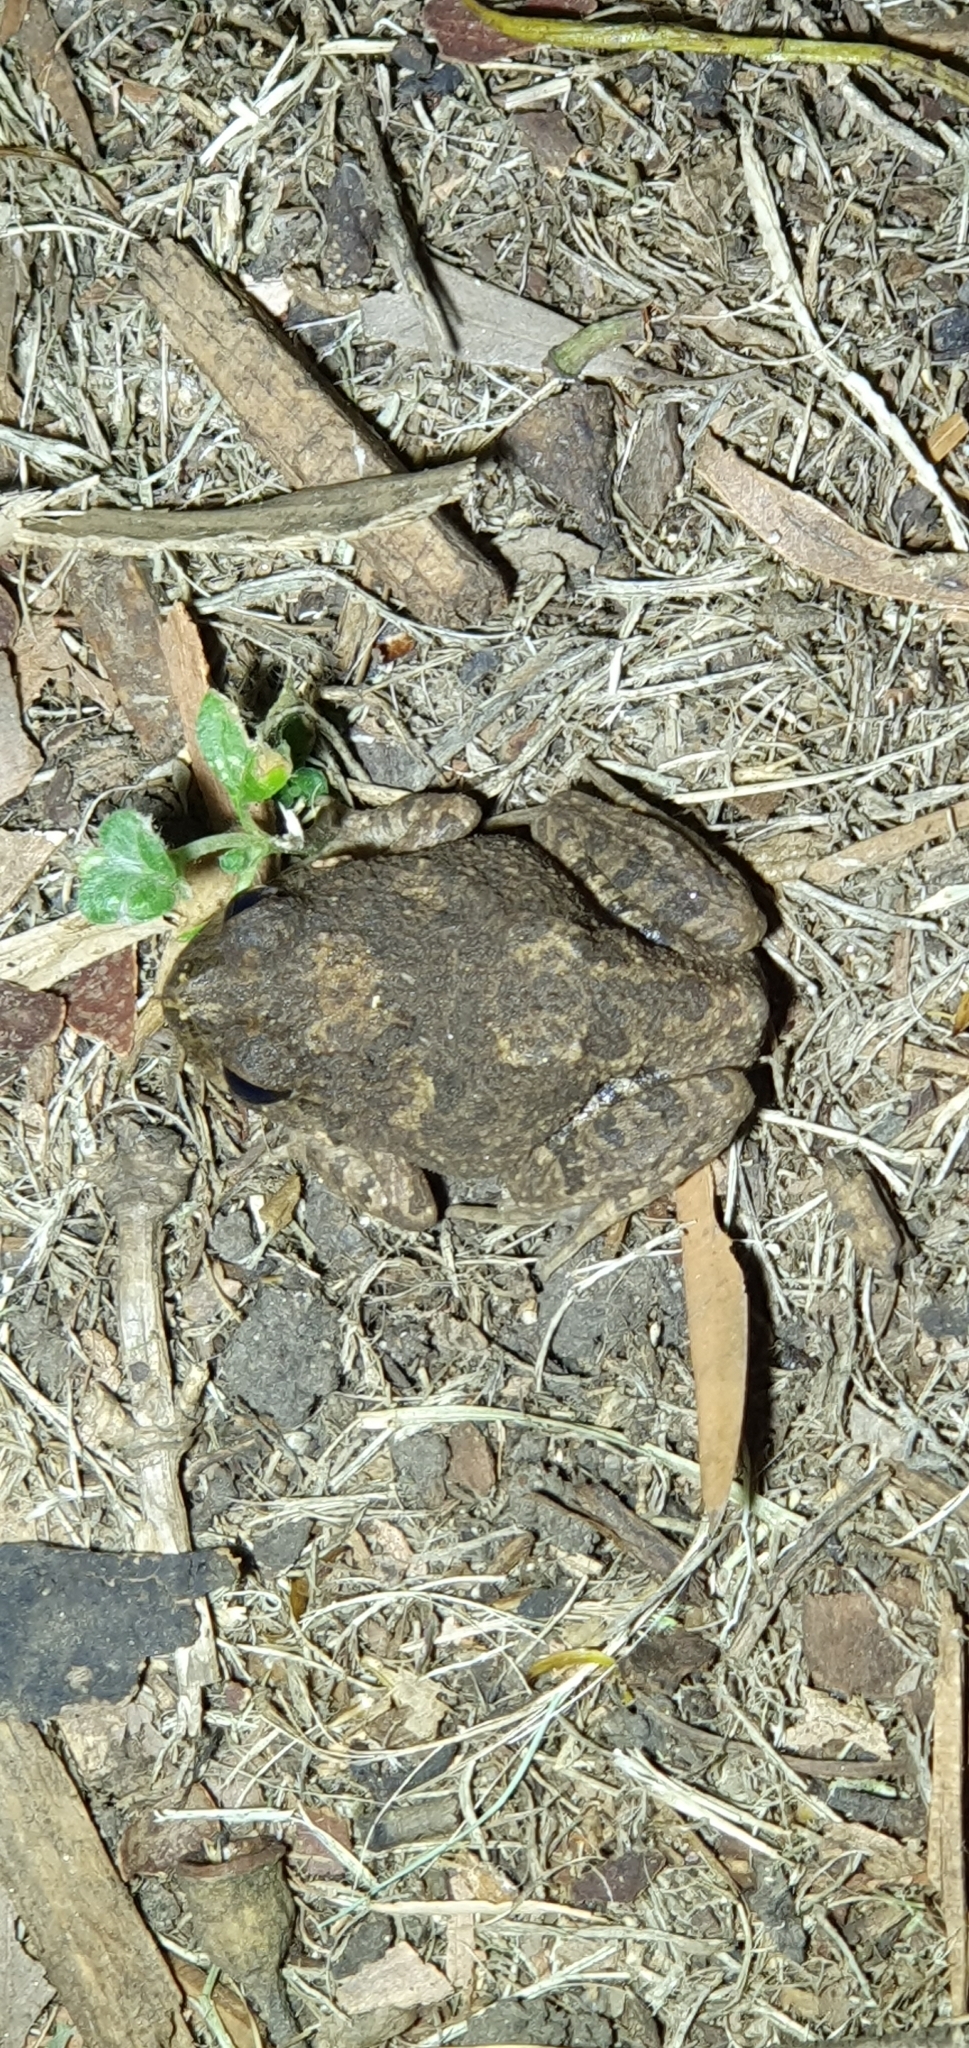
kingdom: Animalia
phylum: Chordata
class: Amphibia
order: Anura
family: Limnodynastidae
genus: Platyplectrum
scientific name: Platyplectrum ornatum
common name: Ornate burrowing frog
